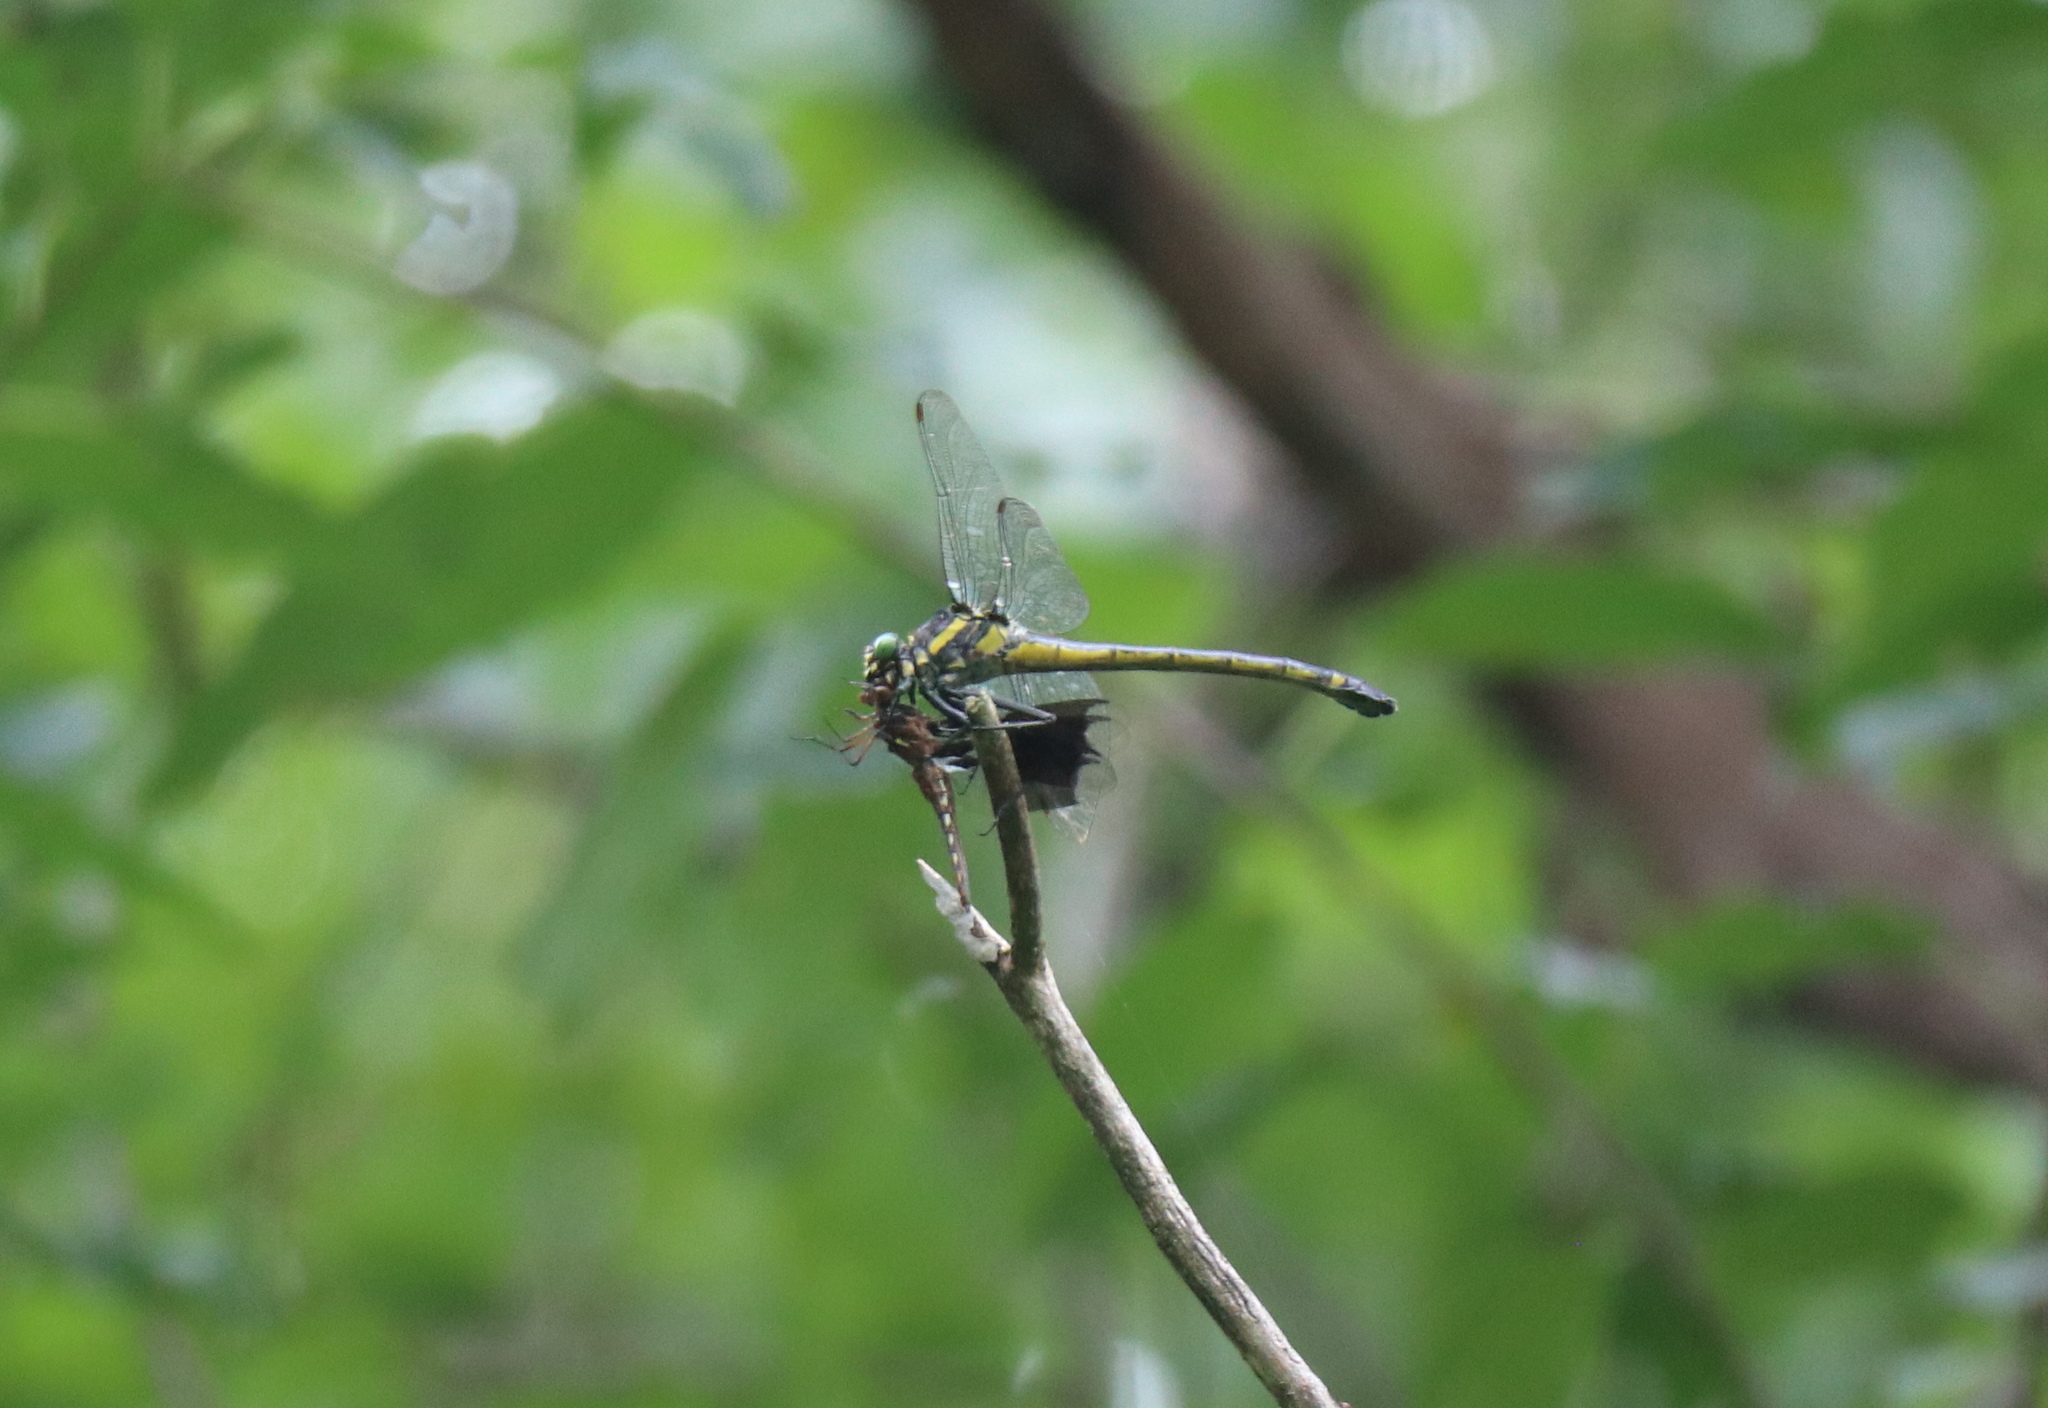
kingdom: Animalia
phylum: Arthropoda
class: Insecta
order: Odonata
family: Gomphidae
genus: Hagenius
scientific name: Hagenius brevistylus
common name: Dragonhunter
